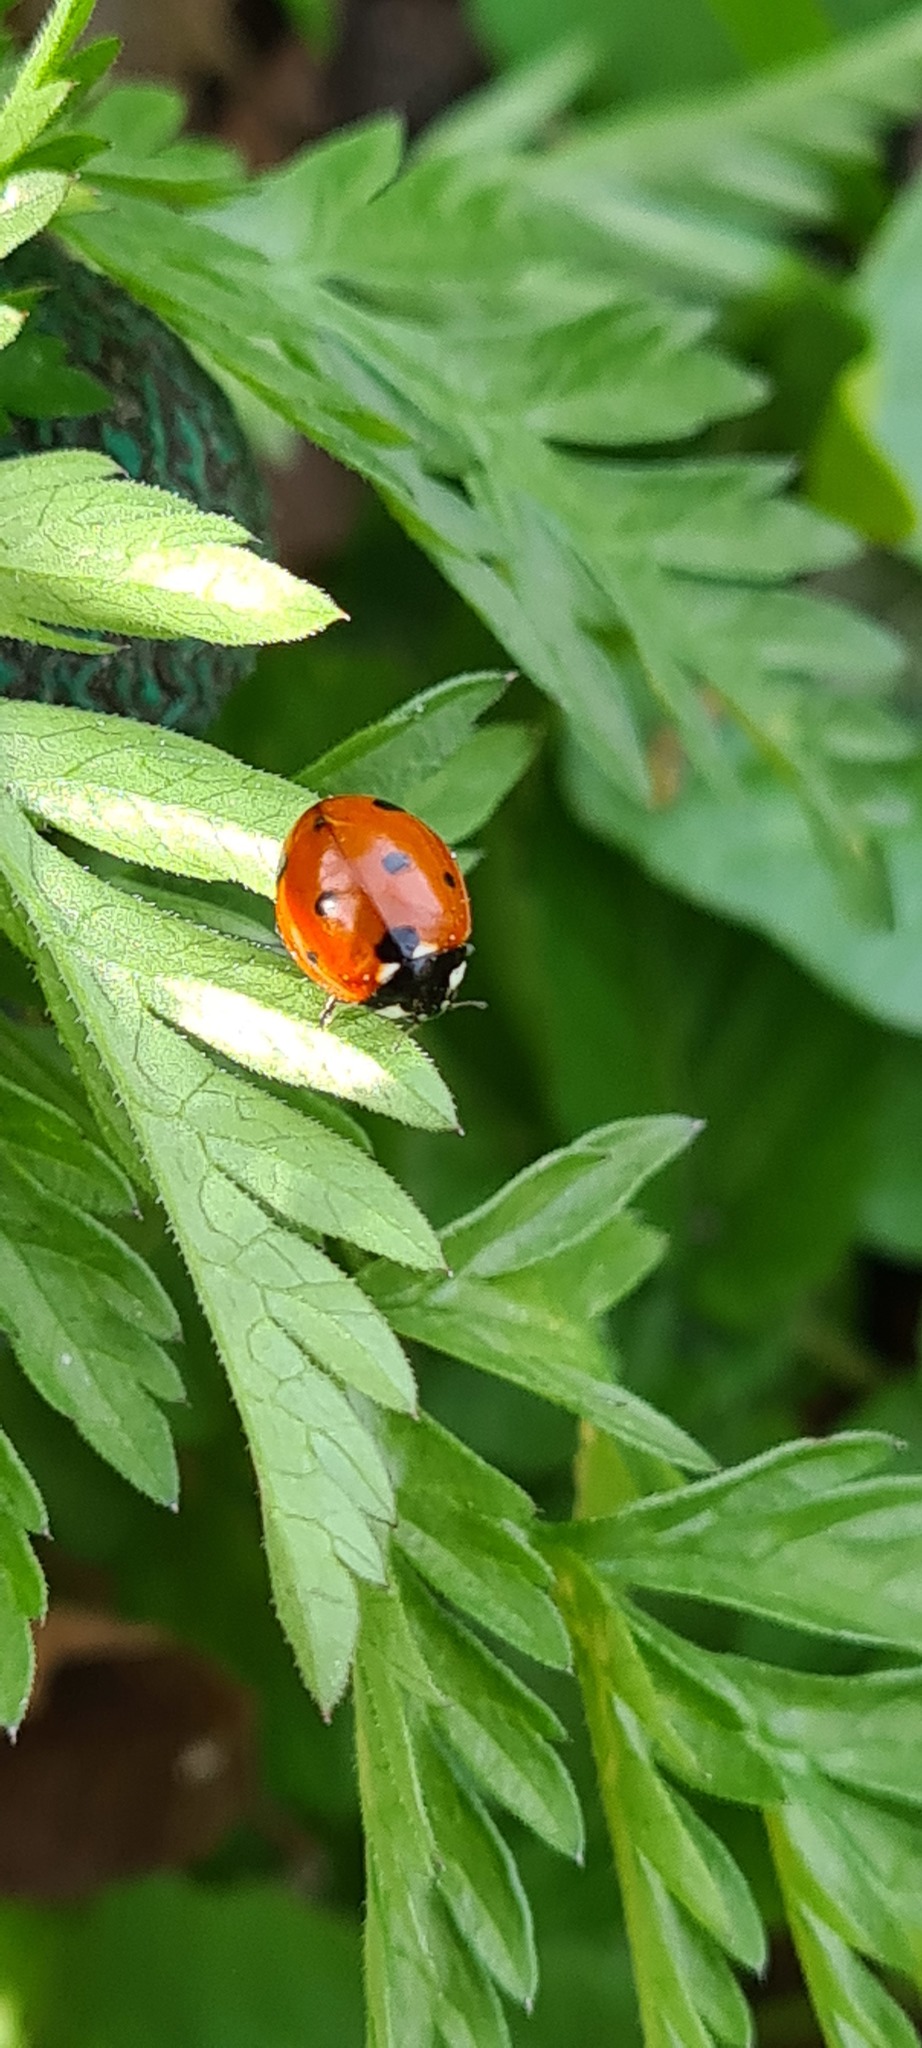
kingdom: Animalia
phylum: Arthropoda
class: Insecta
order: Coleoptera
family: Coccinellidae
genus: Coccinella
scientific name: Coccinella septempunctata
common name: Sevenspotted lady beetle
